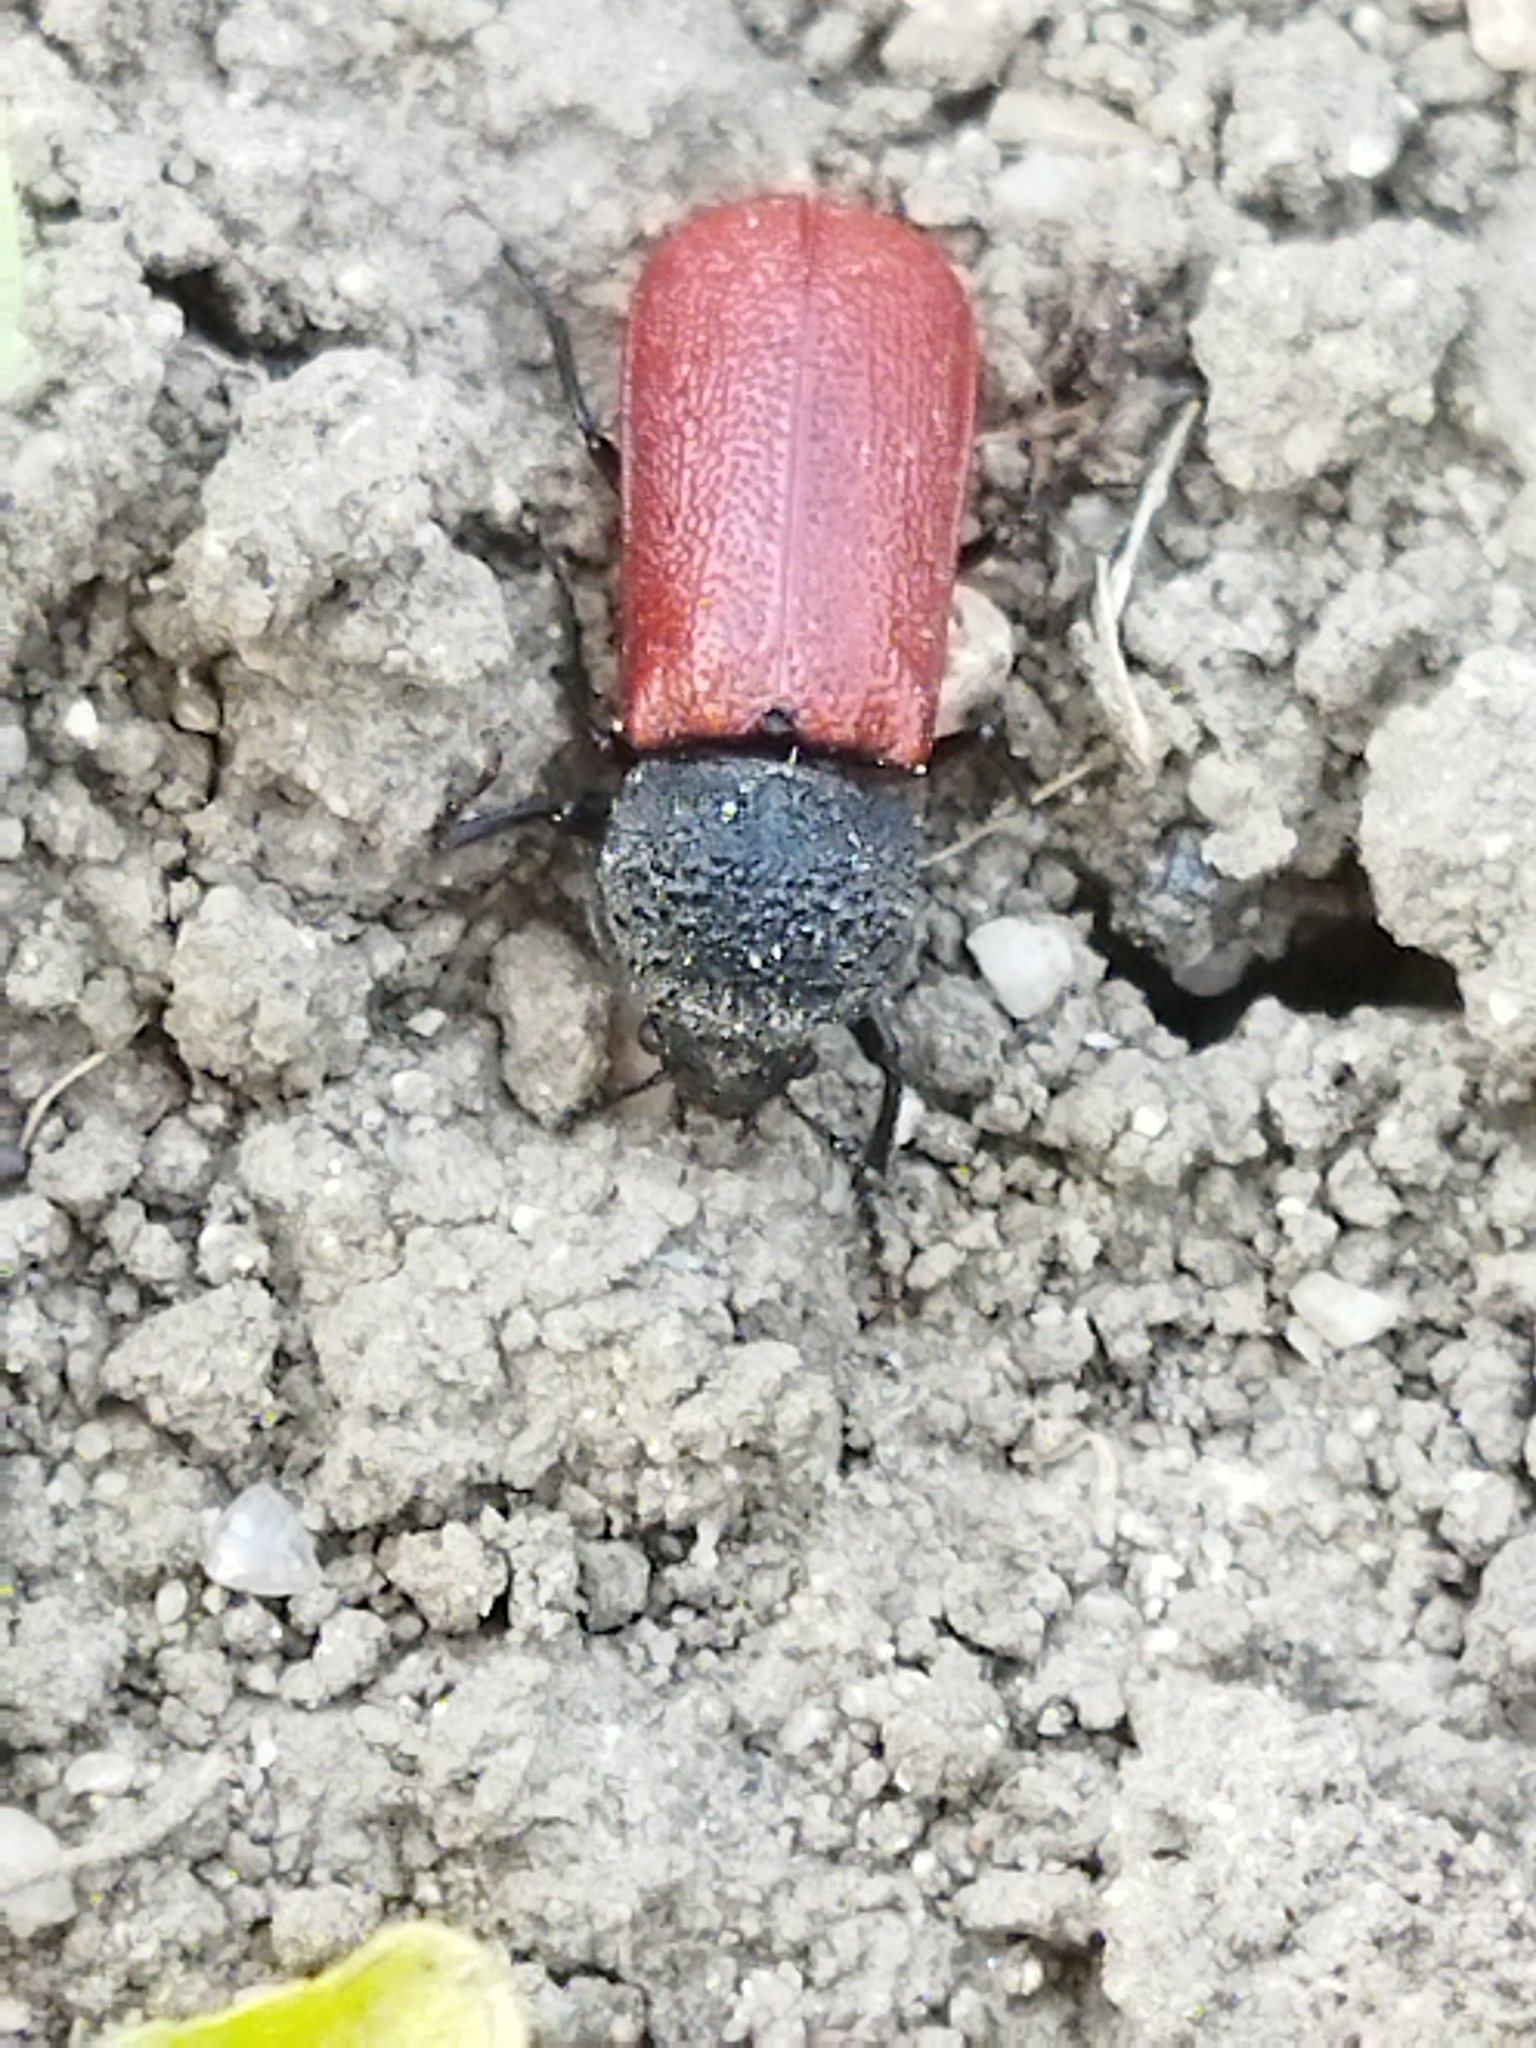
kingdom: Animalia
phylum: Arthropoda
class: Insecta
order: Coleoptera
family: Bostrichidae
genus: Bostrichus
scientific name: Bostrichus capucinus
